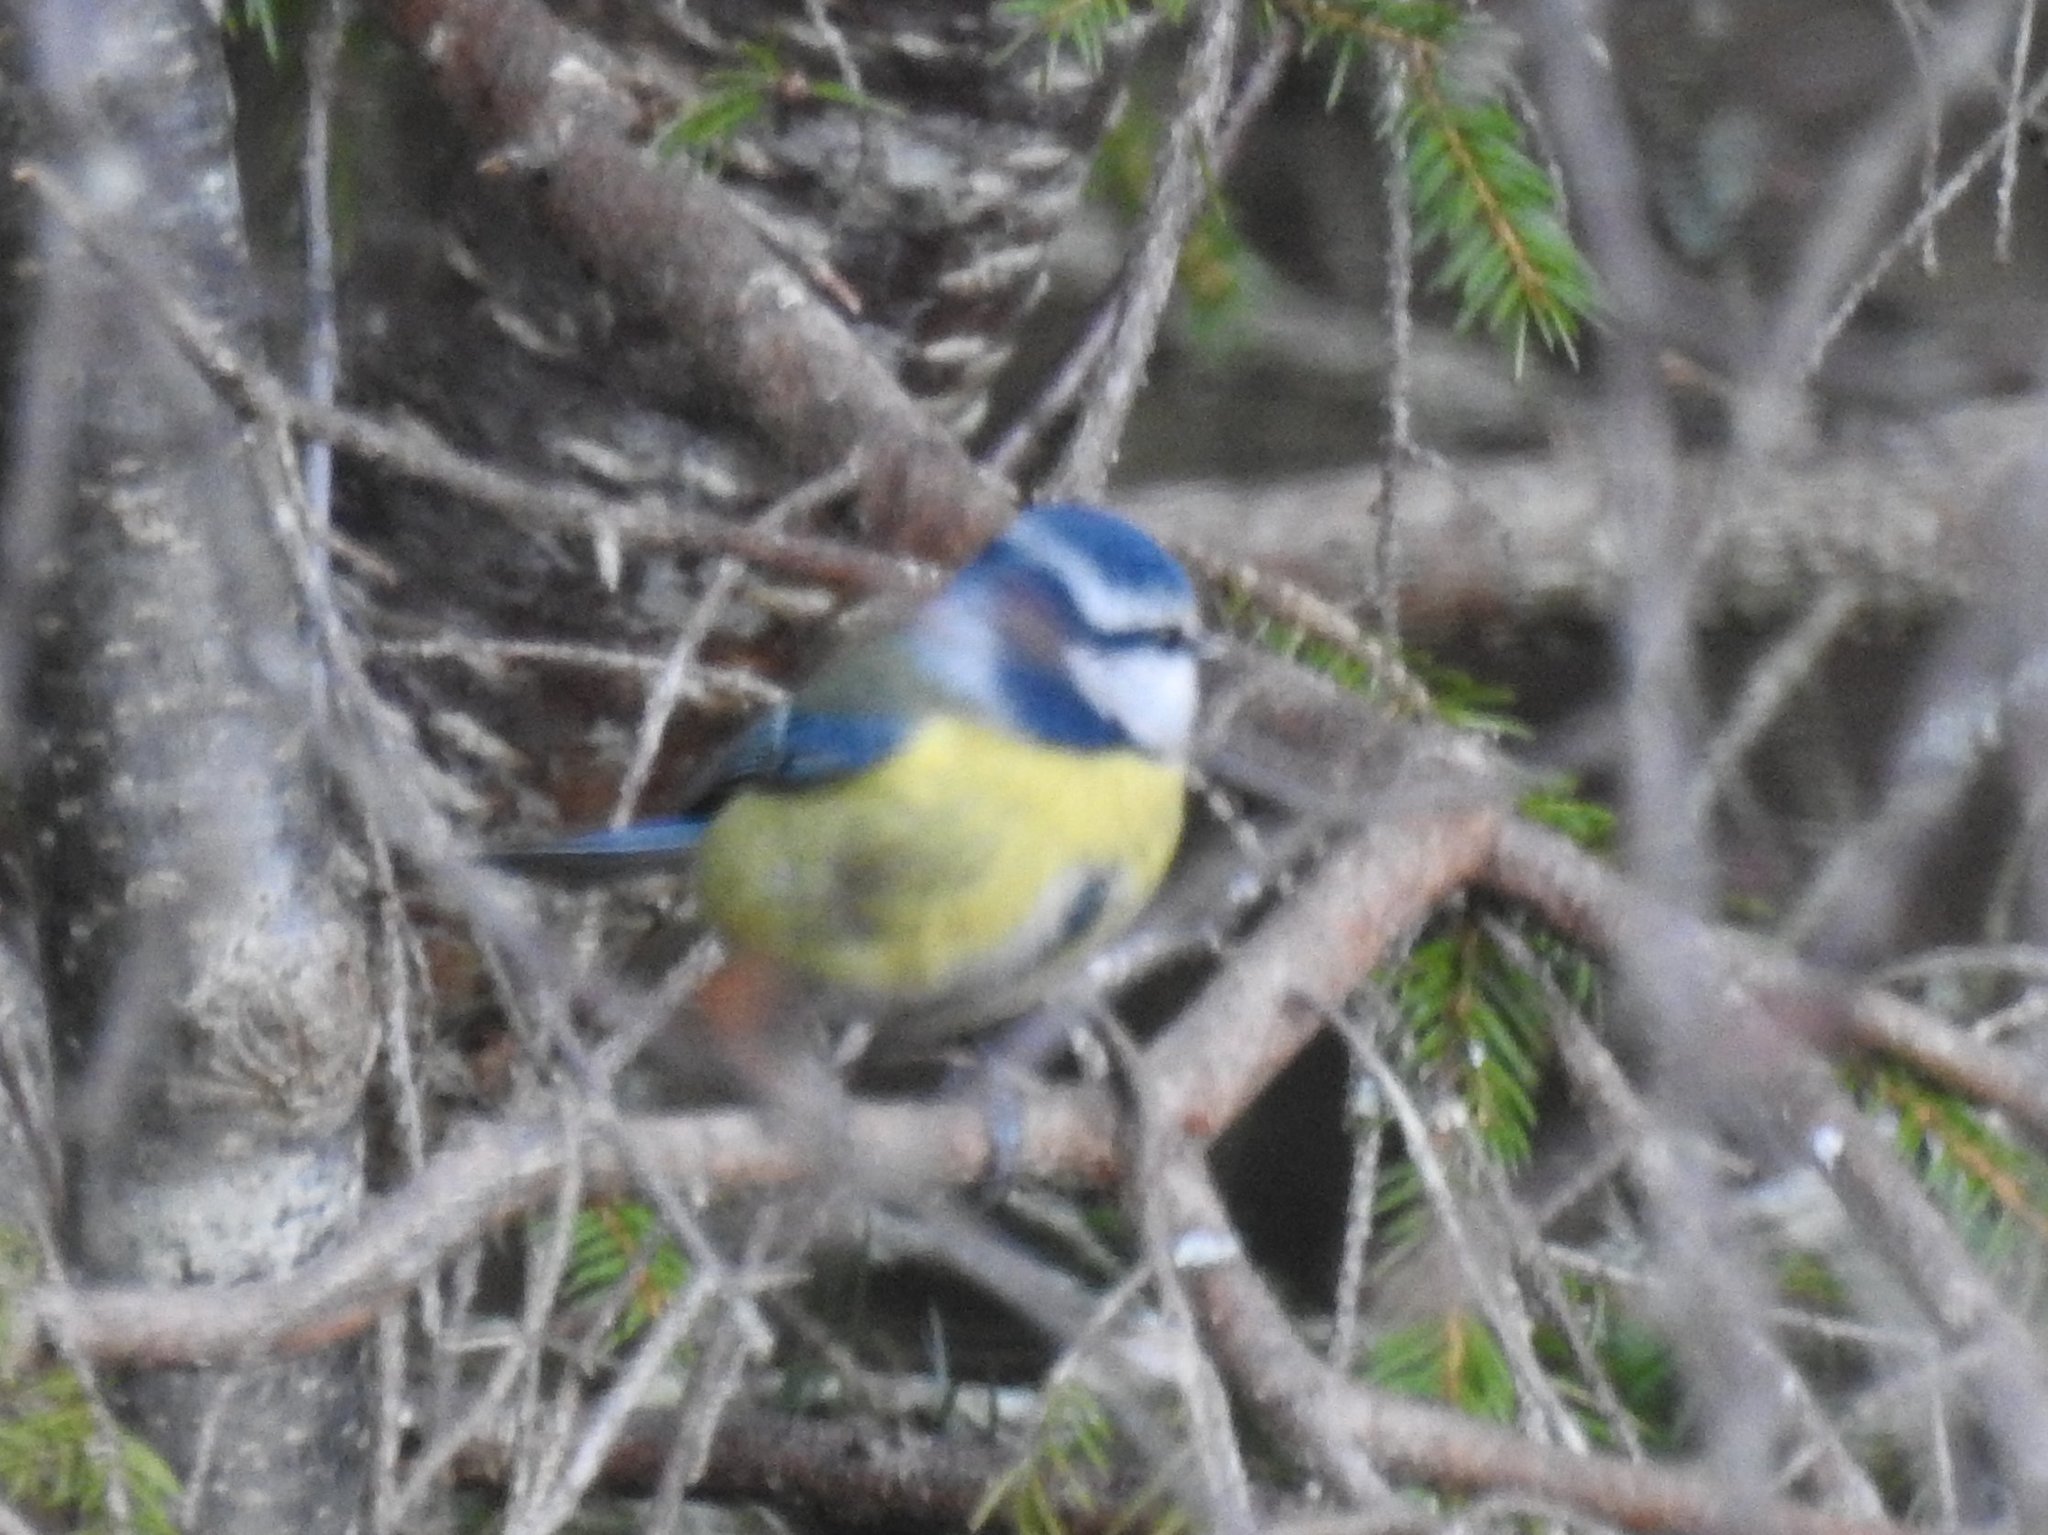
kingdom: Animalia
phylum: Chordata
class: Aves
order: Passeriformes
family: Paridae
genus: Cyanistes
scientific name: Cyanistes caeruleus
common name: Eurasian blue tit
